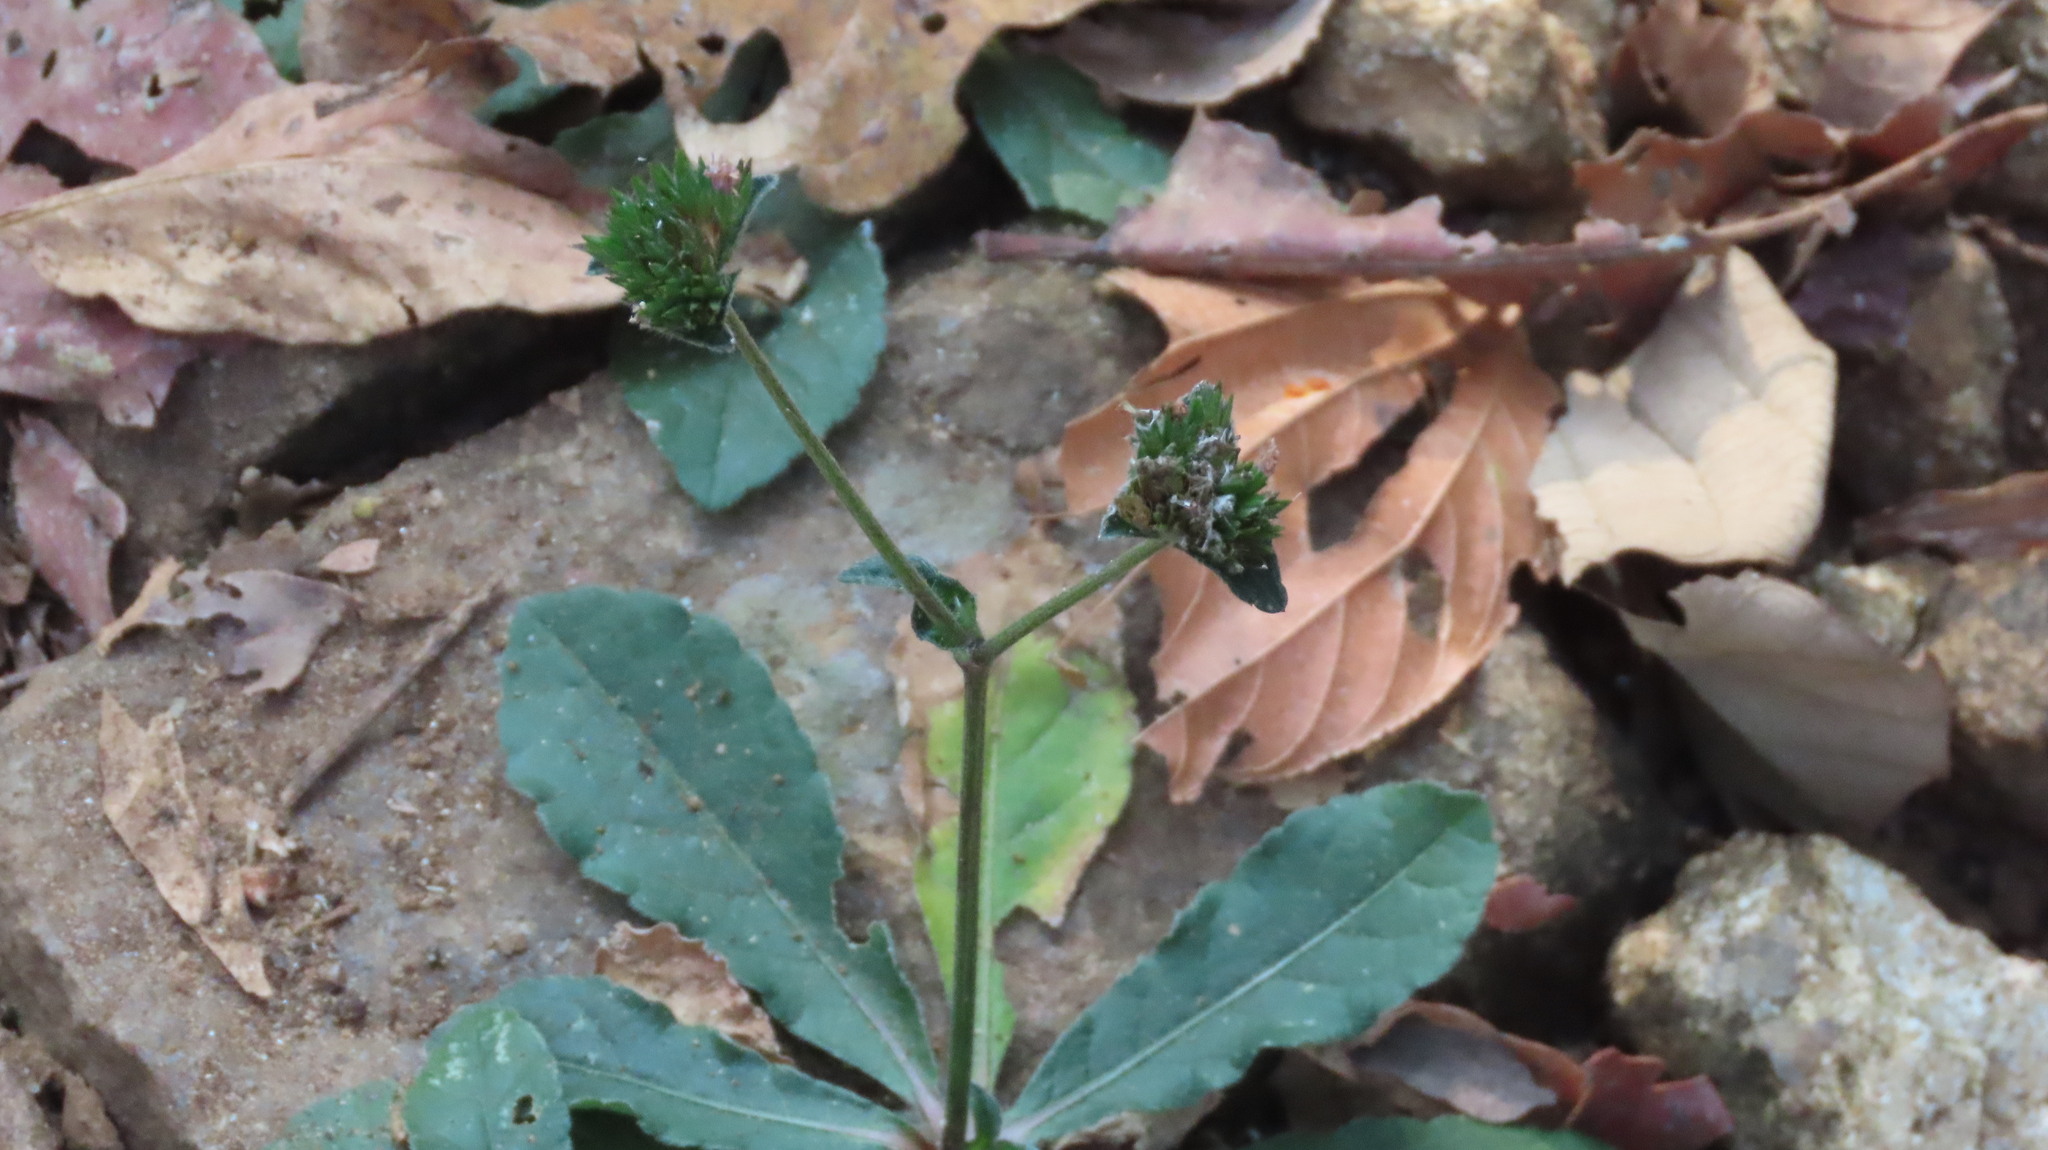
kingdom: Plantae
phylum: Tracheophyta
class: Magnoliopsida
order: Asterales
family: Asteraceae
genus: Elephantopus
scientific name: Elephantopus scaber
